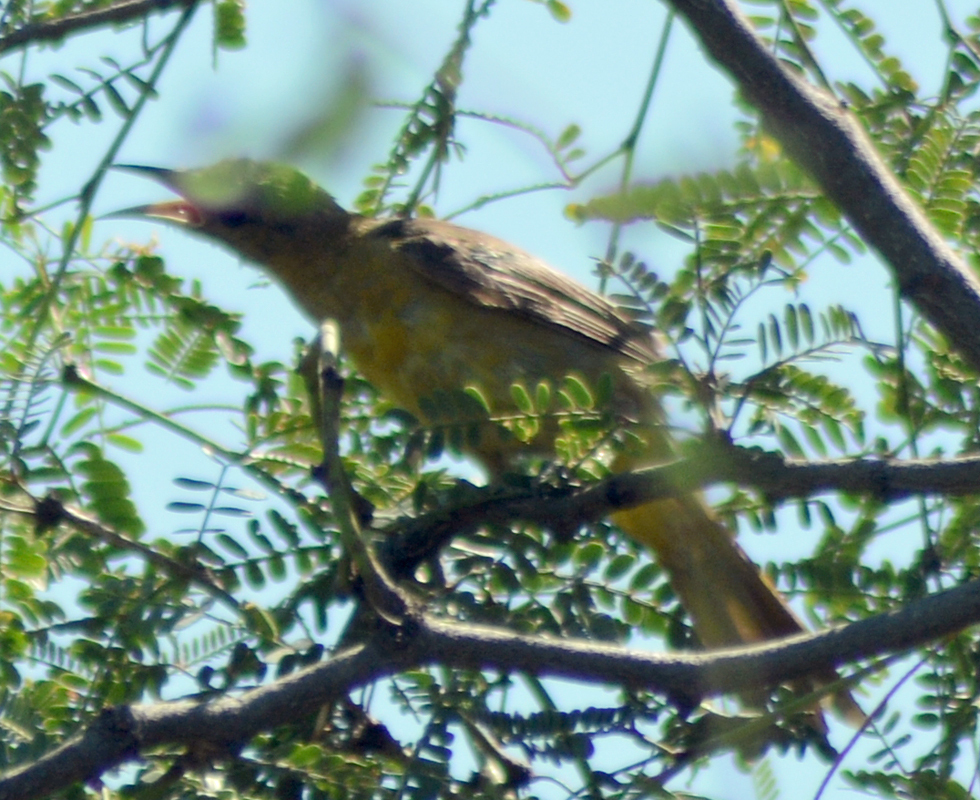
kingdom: Animalia
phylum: Chordata
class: Aves
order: Passeriformes
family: Icteridae
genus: Icterus
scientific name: Icterus cucullatus
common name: Hooded oriole
